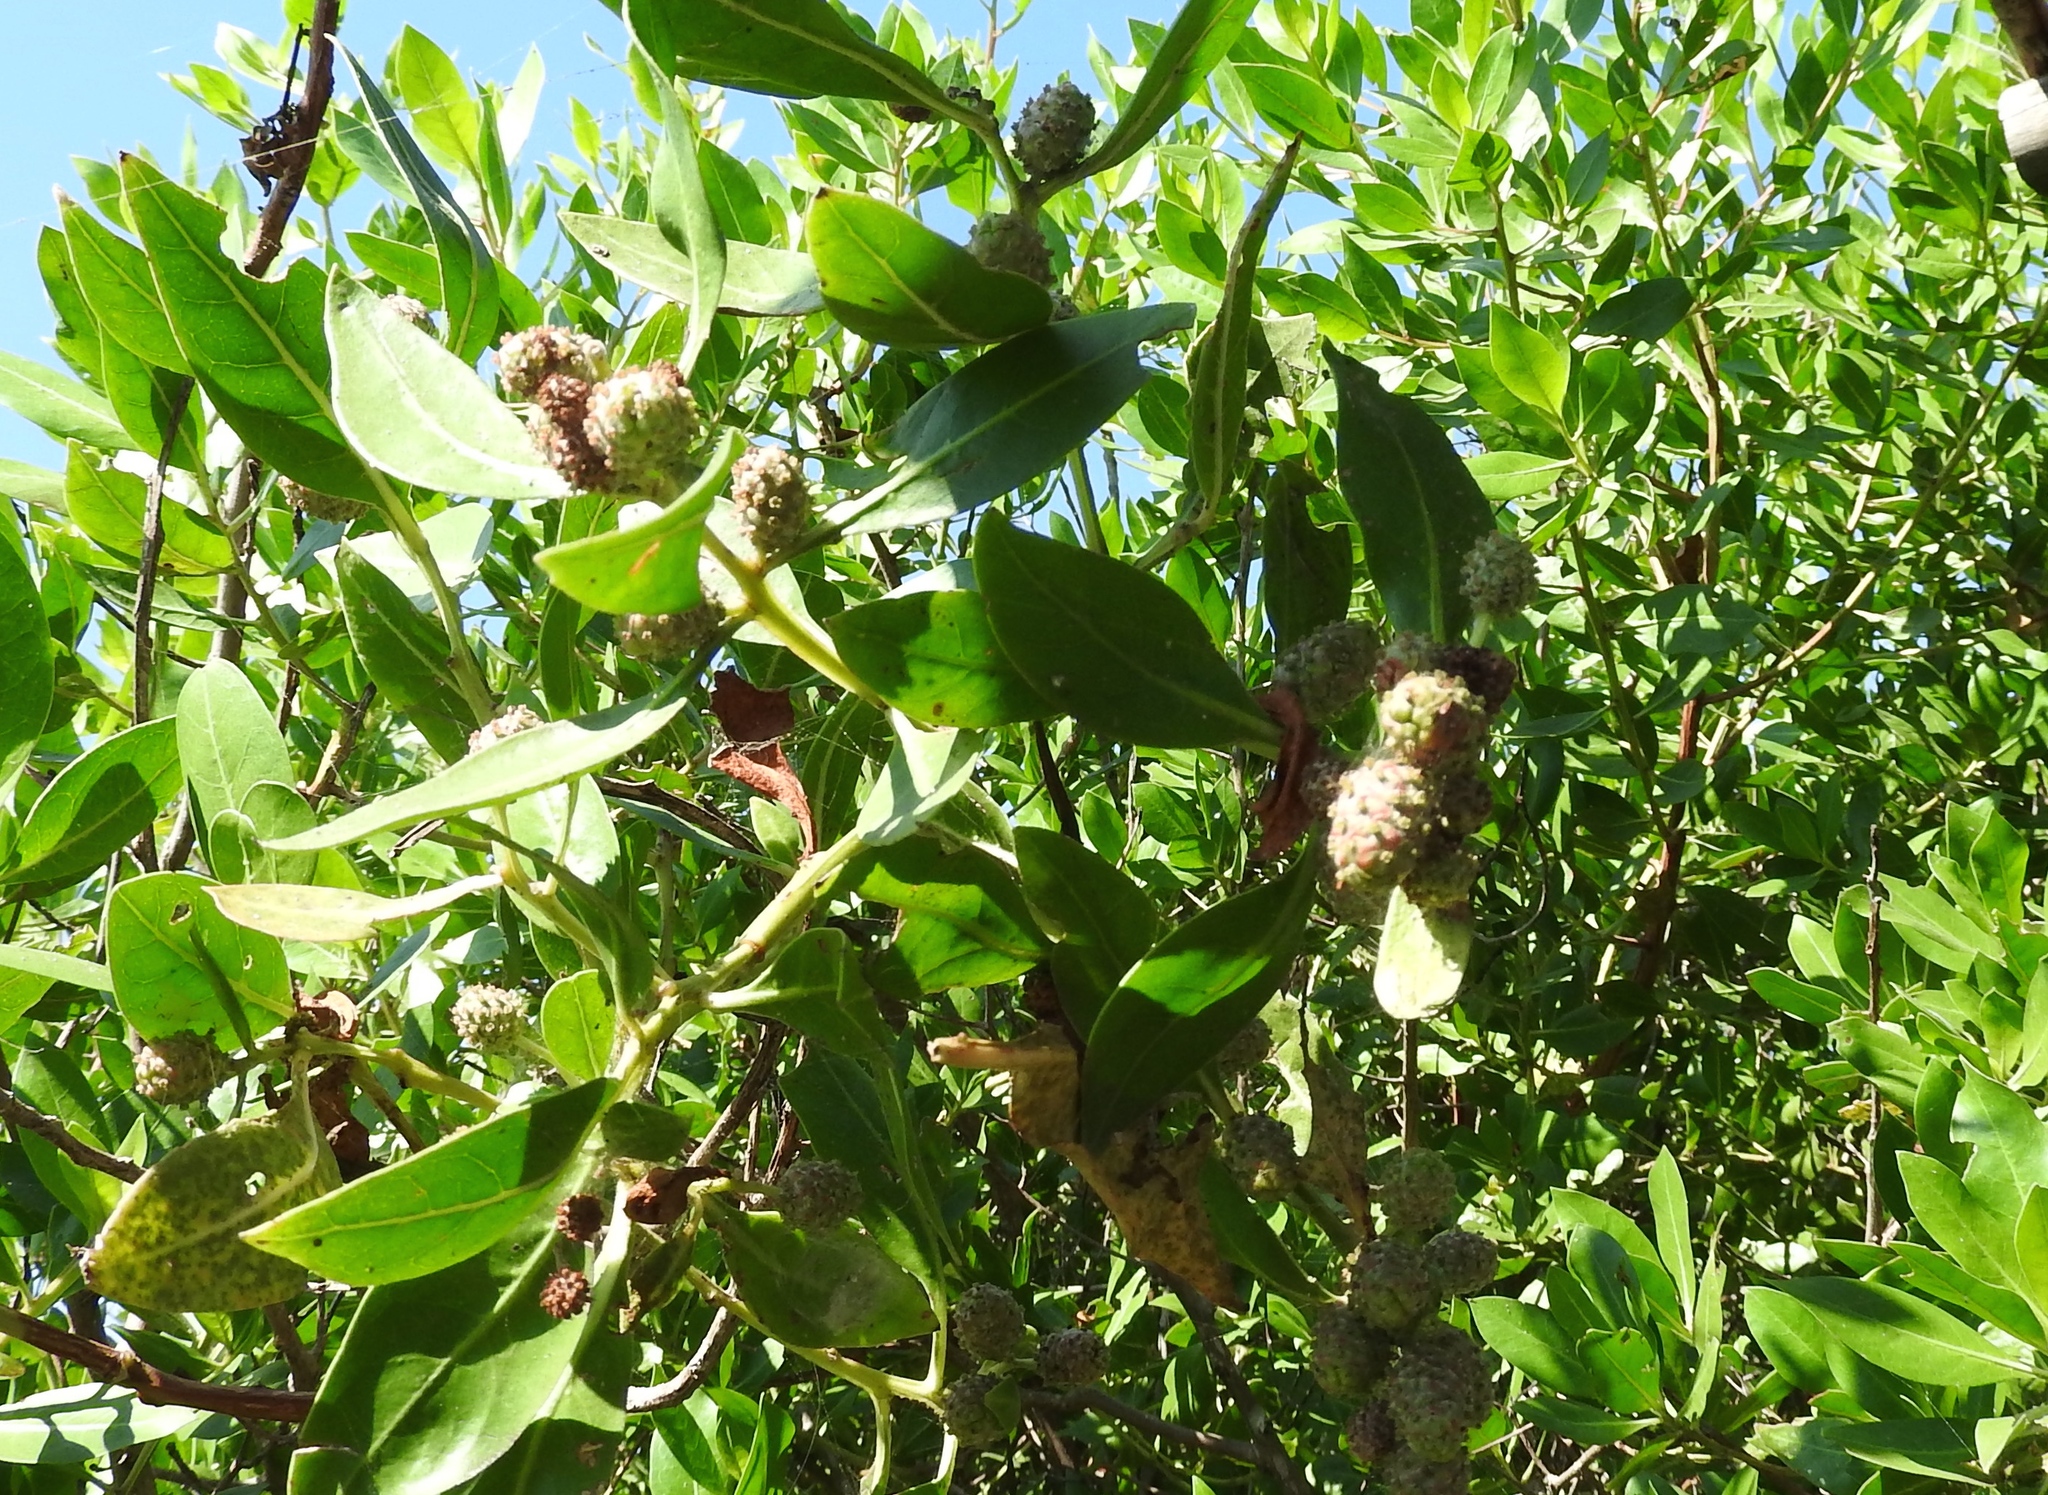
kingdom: Plantae
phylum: Tracheophyta
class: Magnoliopsida
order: Myrtales
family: Combretaceae
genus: Conocarpus
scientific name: Conocarpus erectus
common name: Button mangrove
